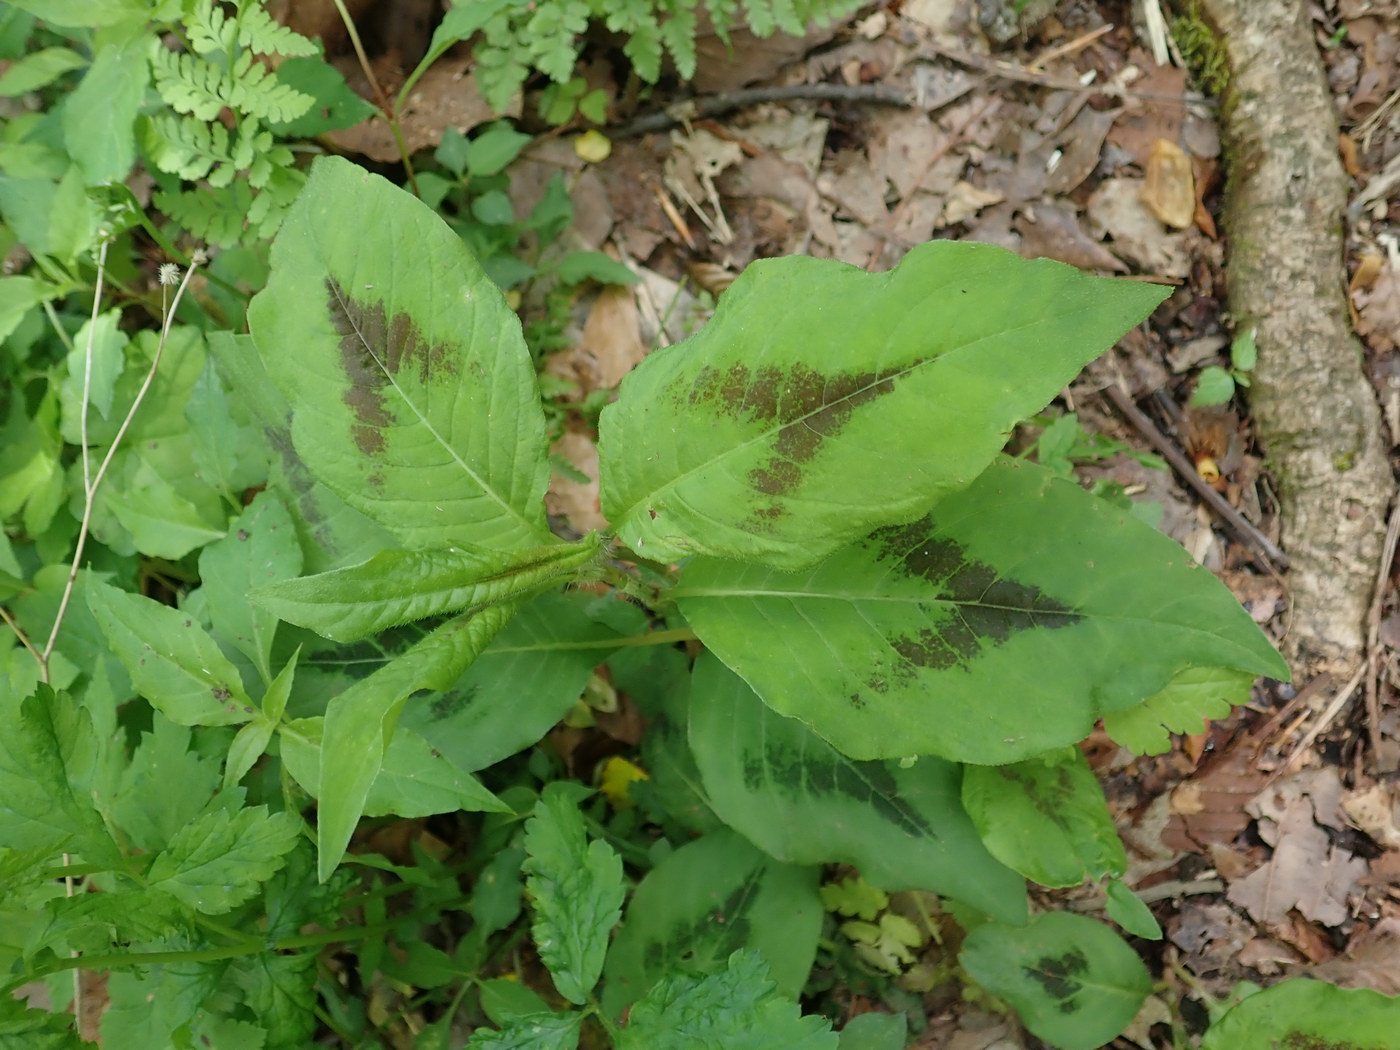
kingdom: Plantae
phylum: Tracheophyta
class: Magnoliopsida
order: Caryophyllales
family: Polygonaceae
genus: Persicaria
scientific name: Persicaria virginiana
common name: Jumpseed
